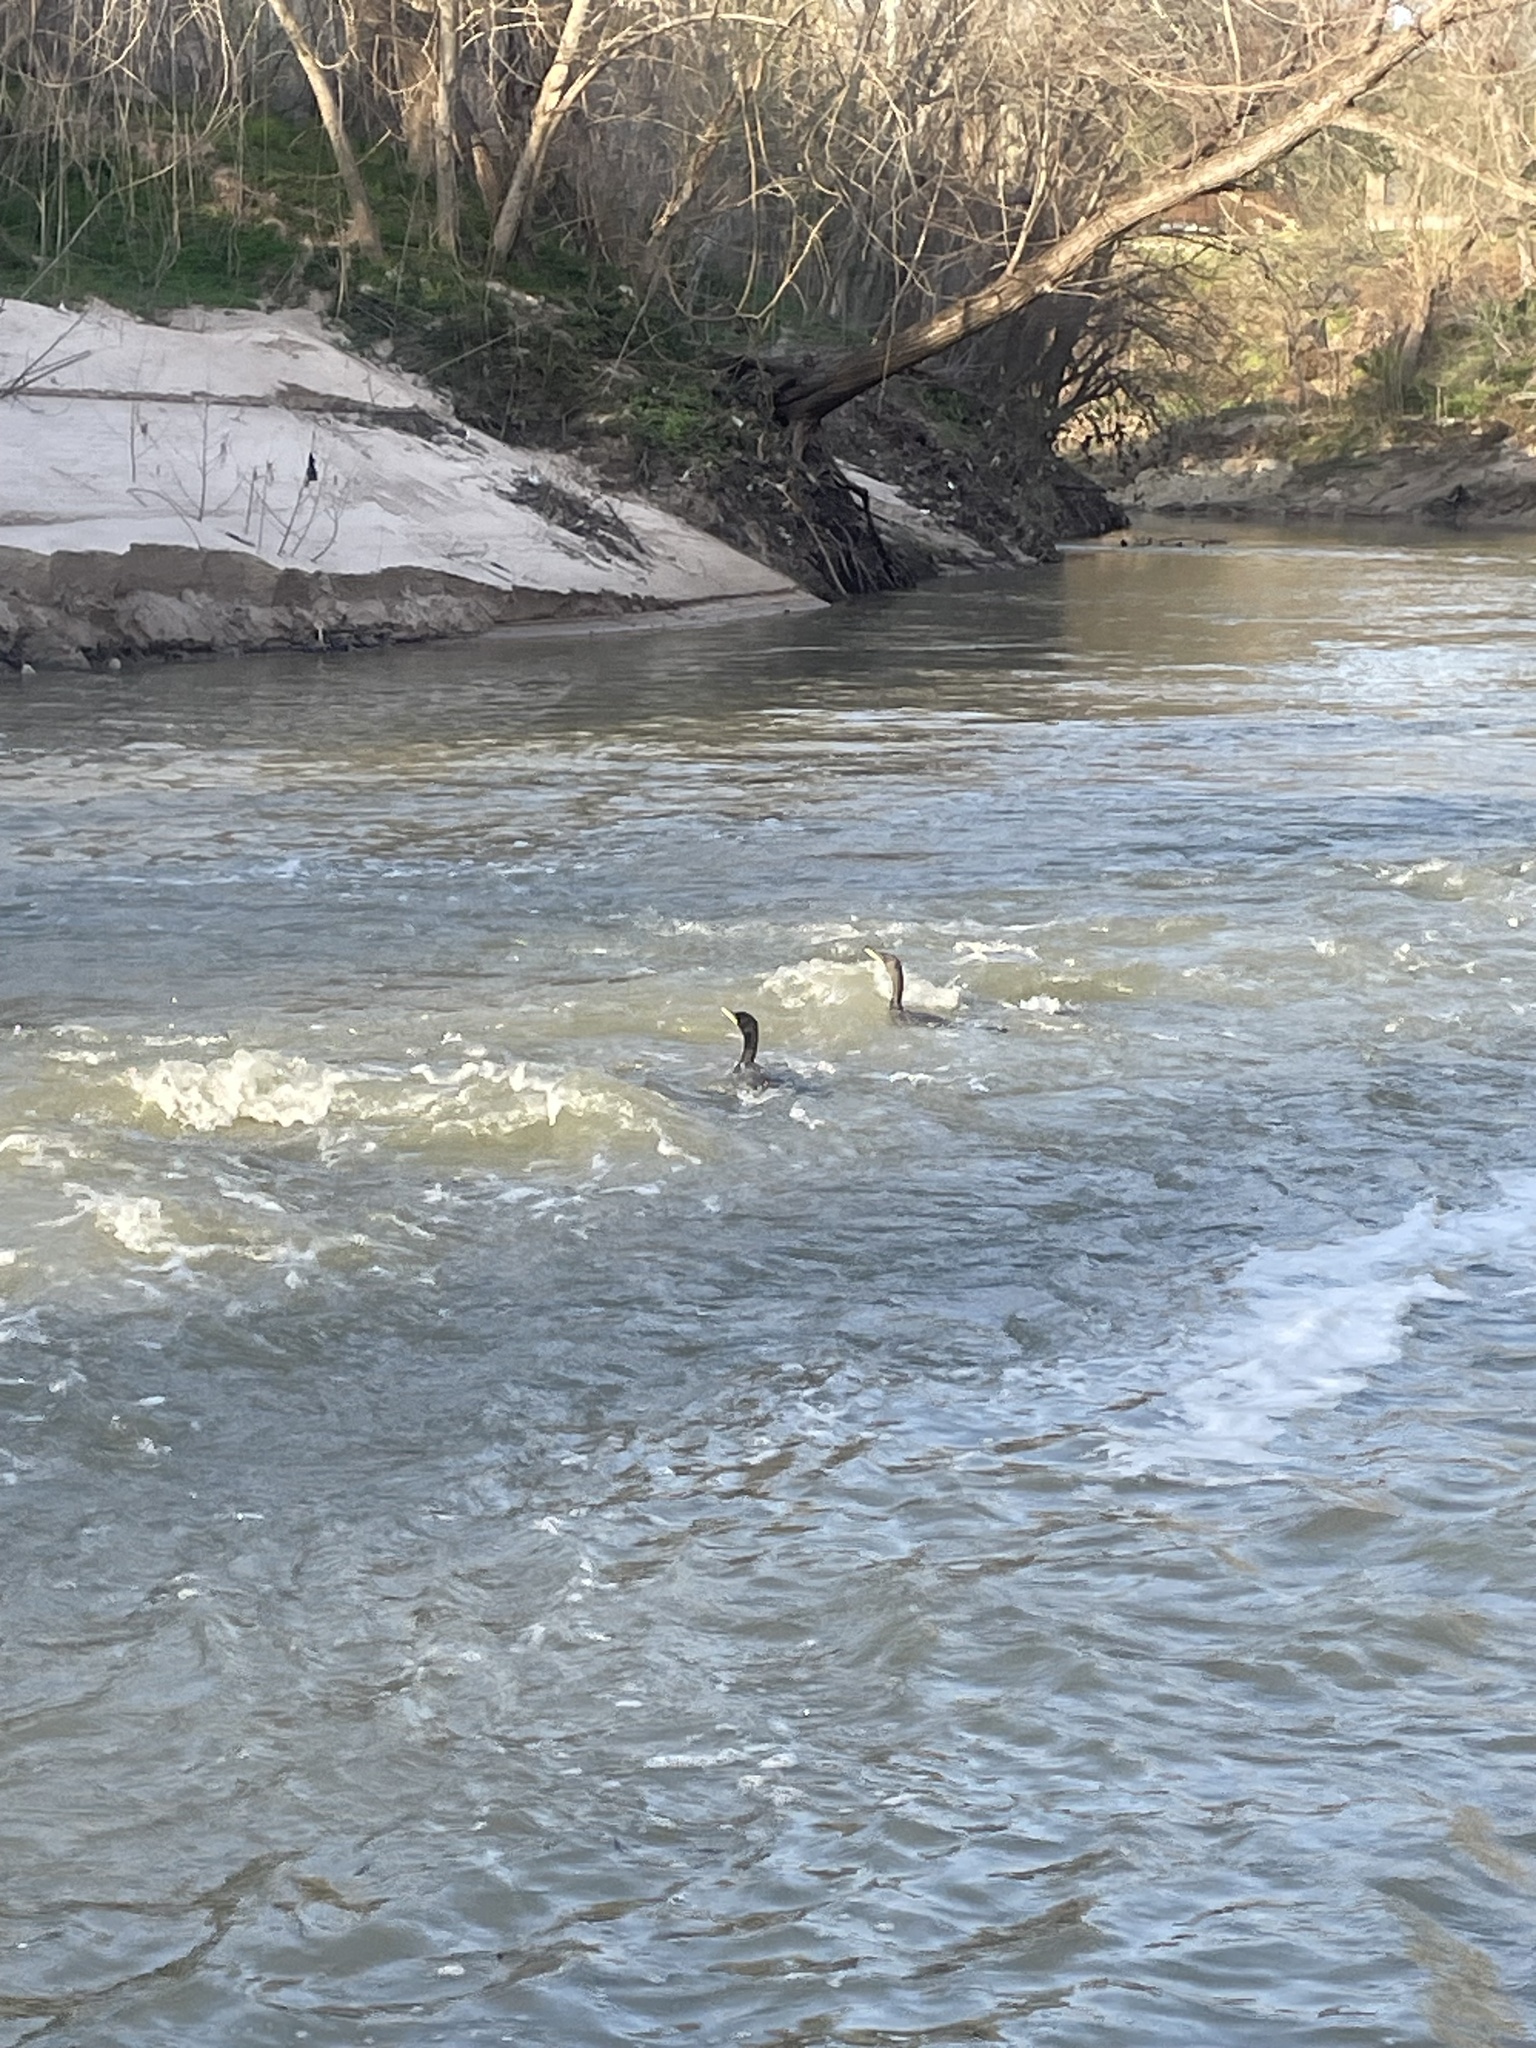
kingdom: Animalia
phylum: Chordata
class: Aves
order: Suliformes
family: Phalacrocoracidae
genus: Phalacrocorax
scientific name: Phalacrocorax auritus
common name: Double-crested cormorant
